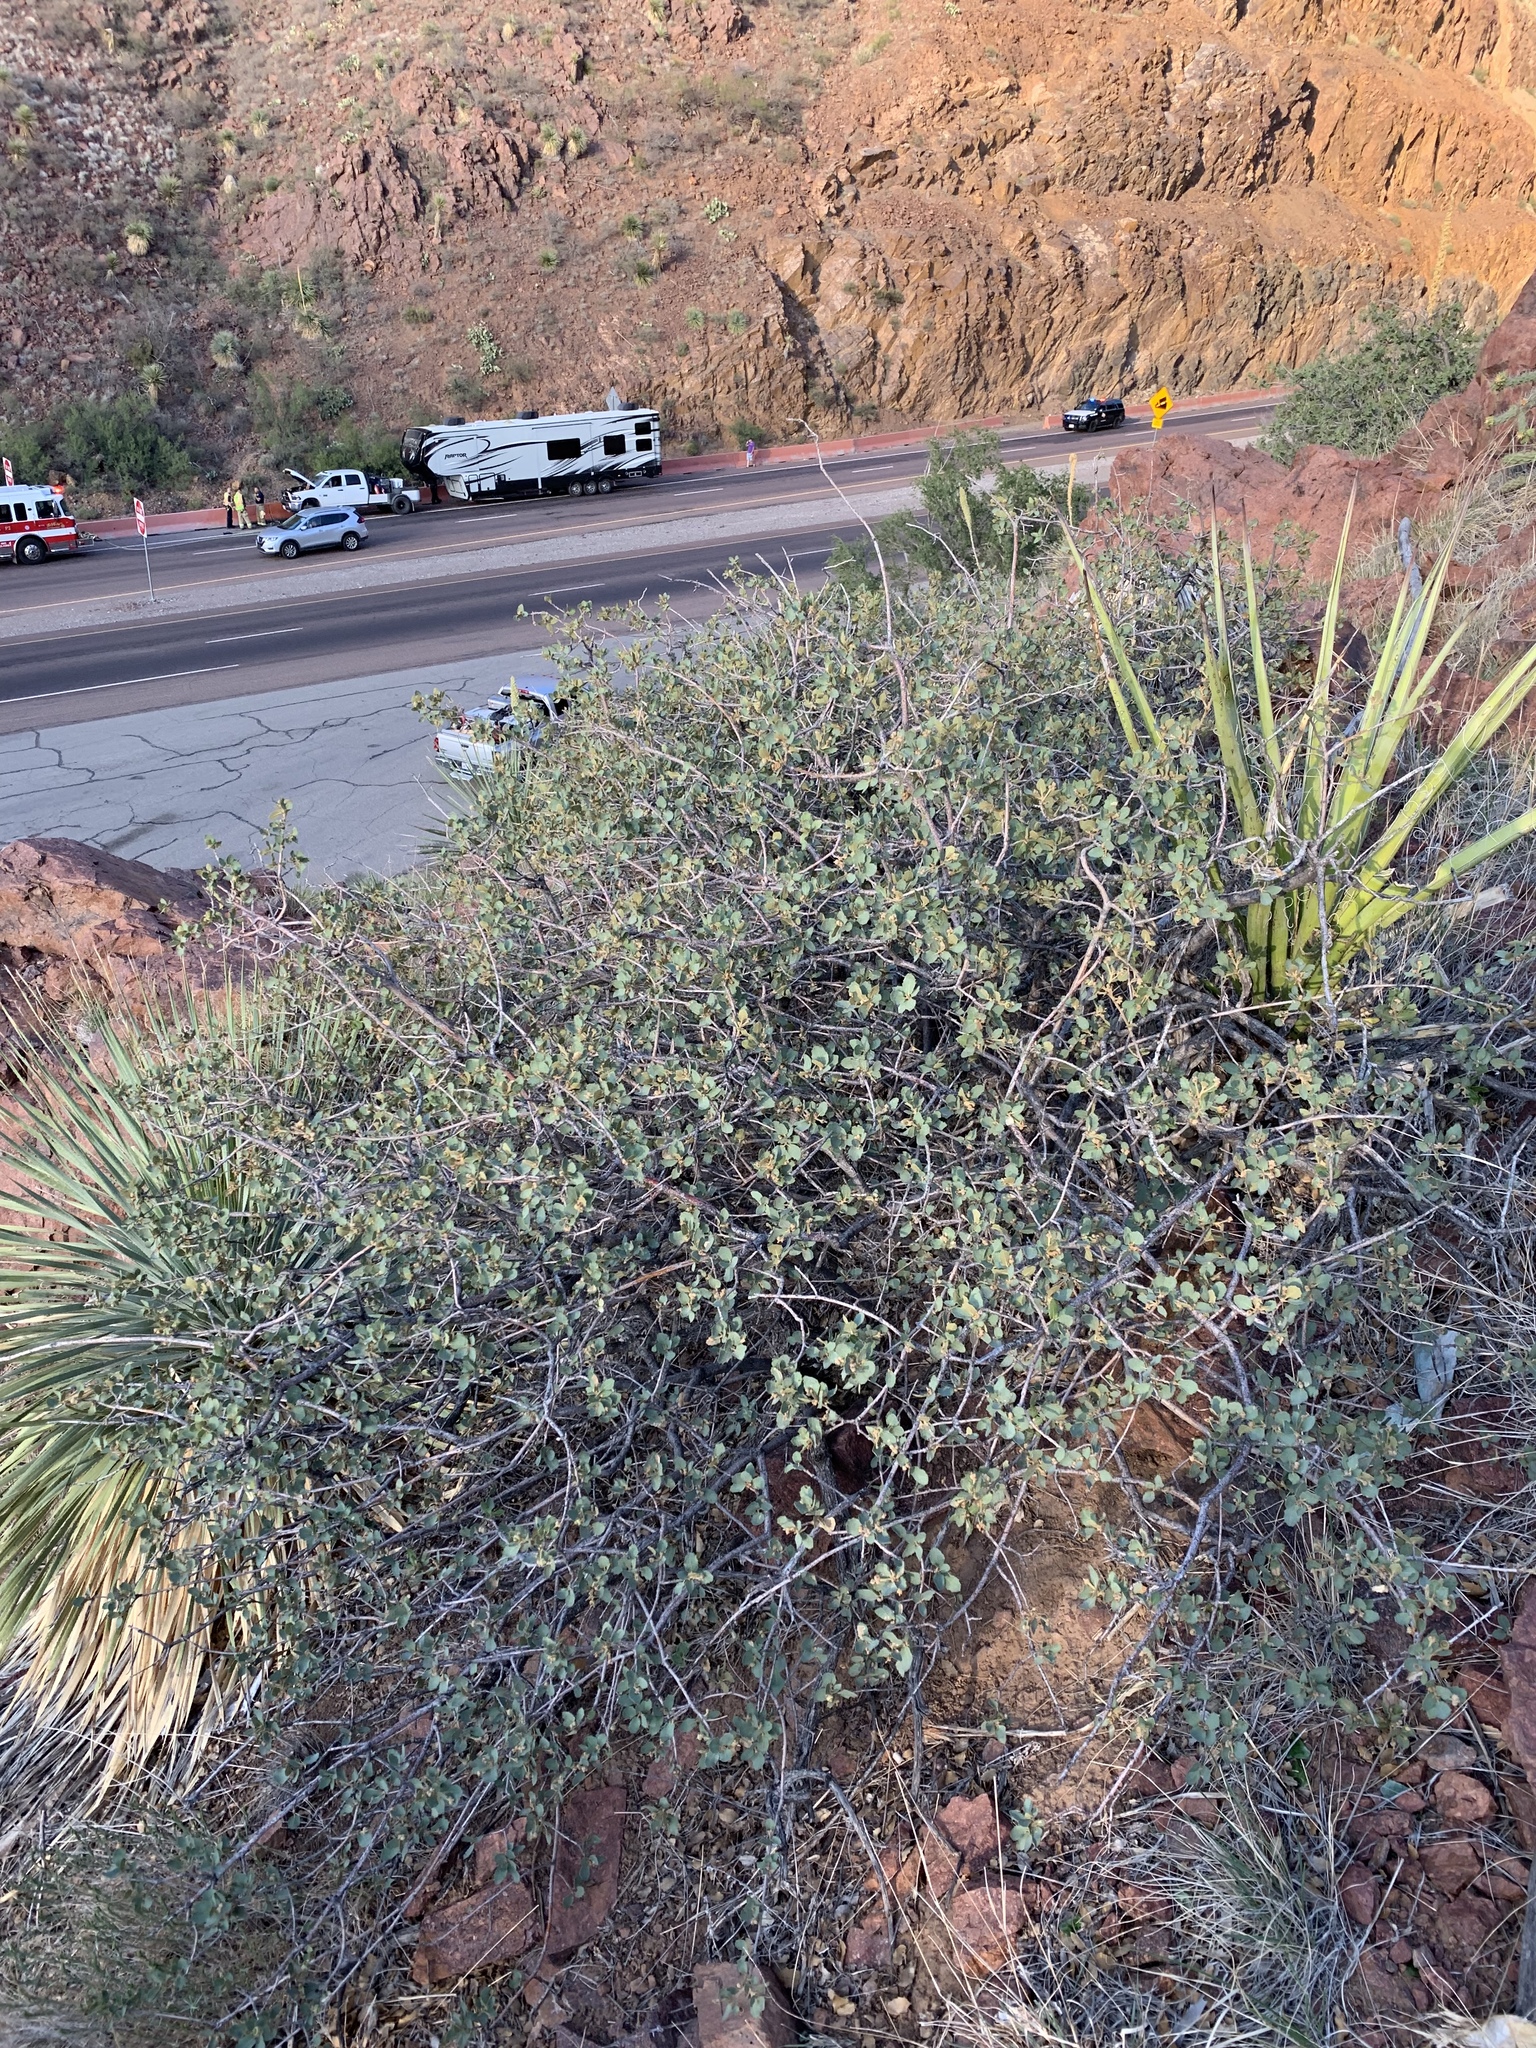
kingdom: Plantae
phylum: Tracheophyta
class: Magnoliopsida
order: Fagales
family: Fagaceae
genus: Quercus
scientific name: Quercus turbinella
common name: Sonoran scrub oak
